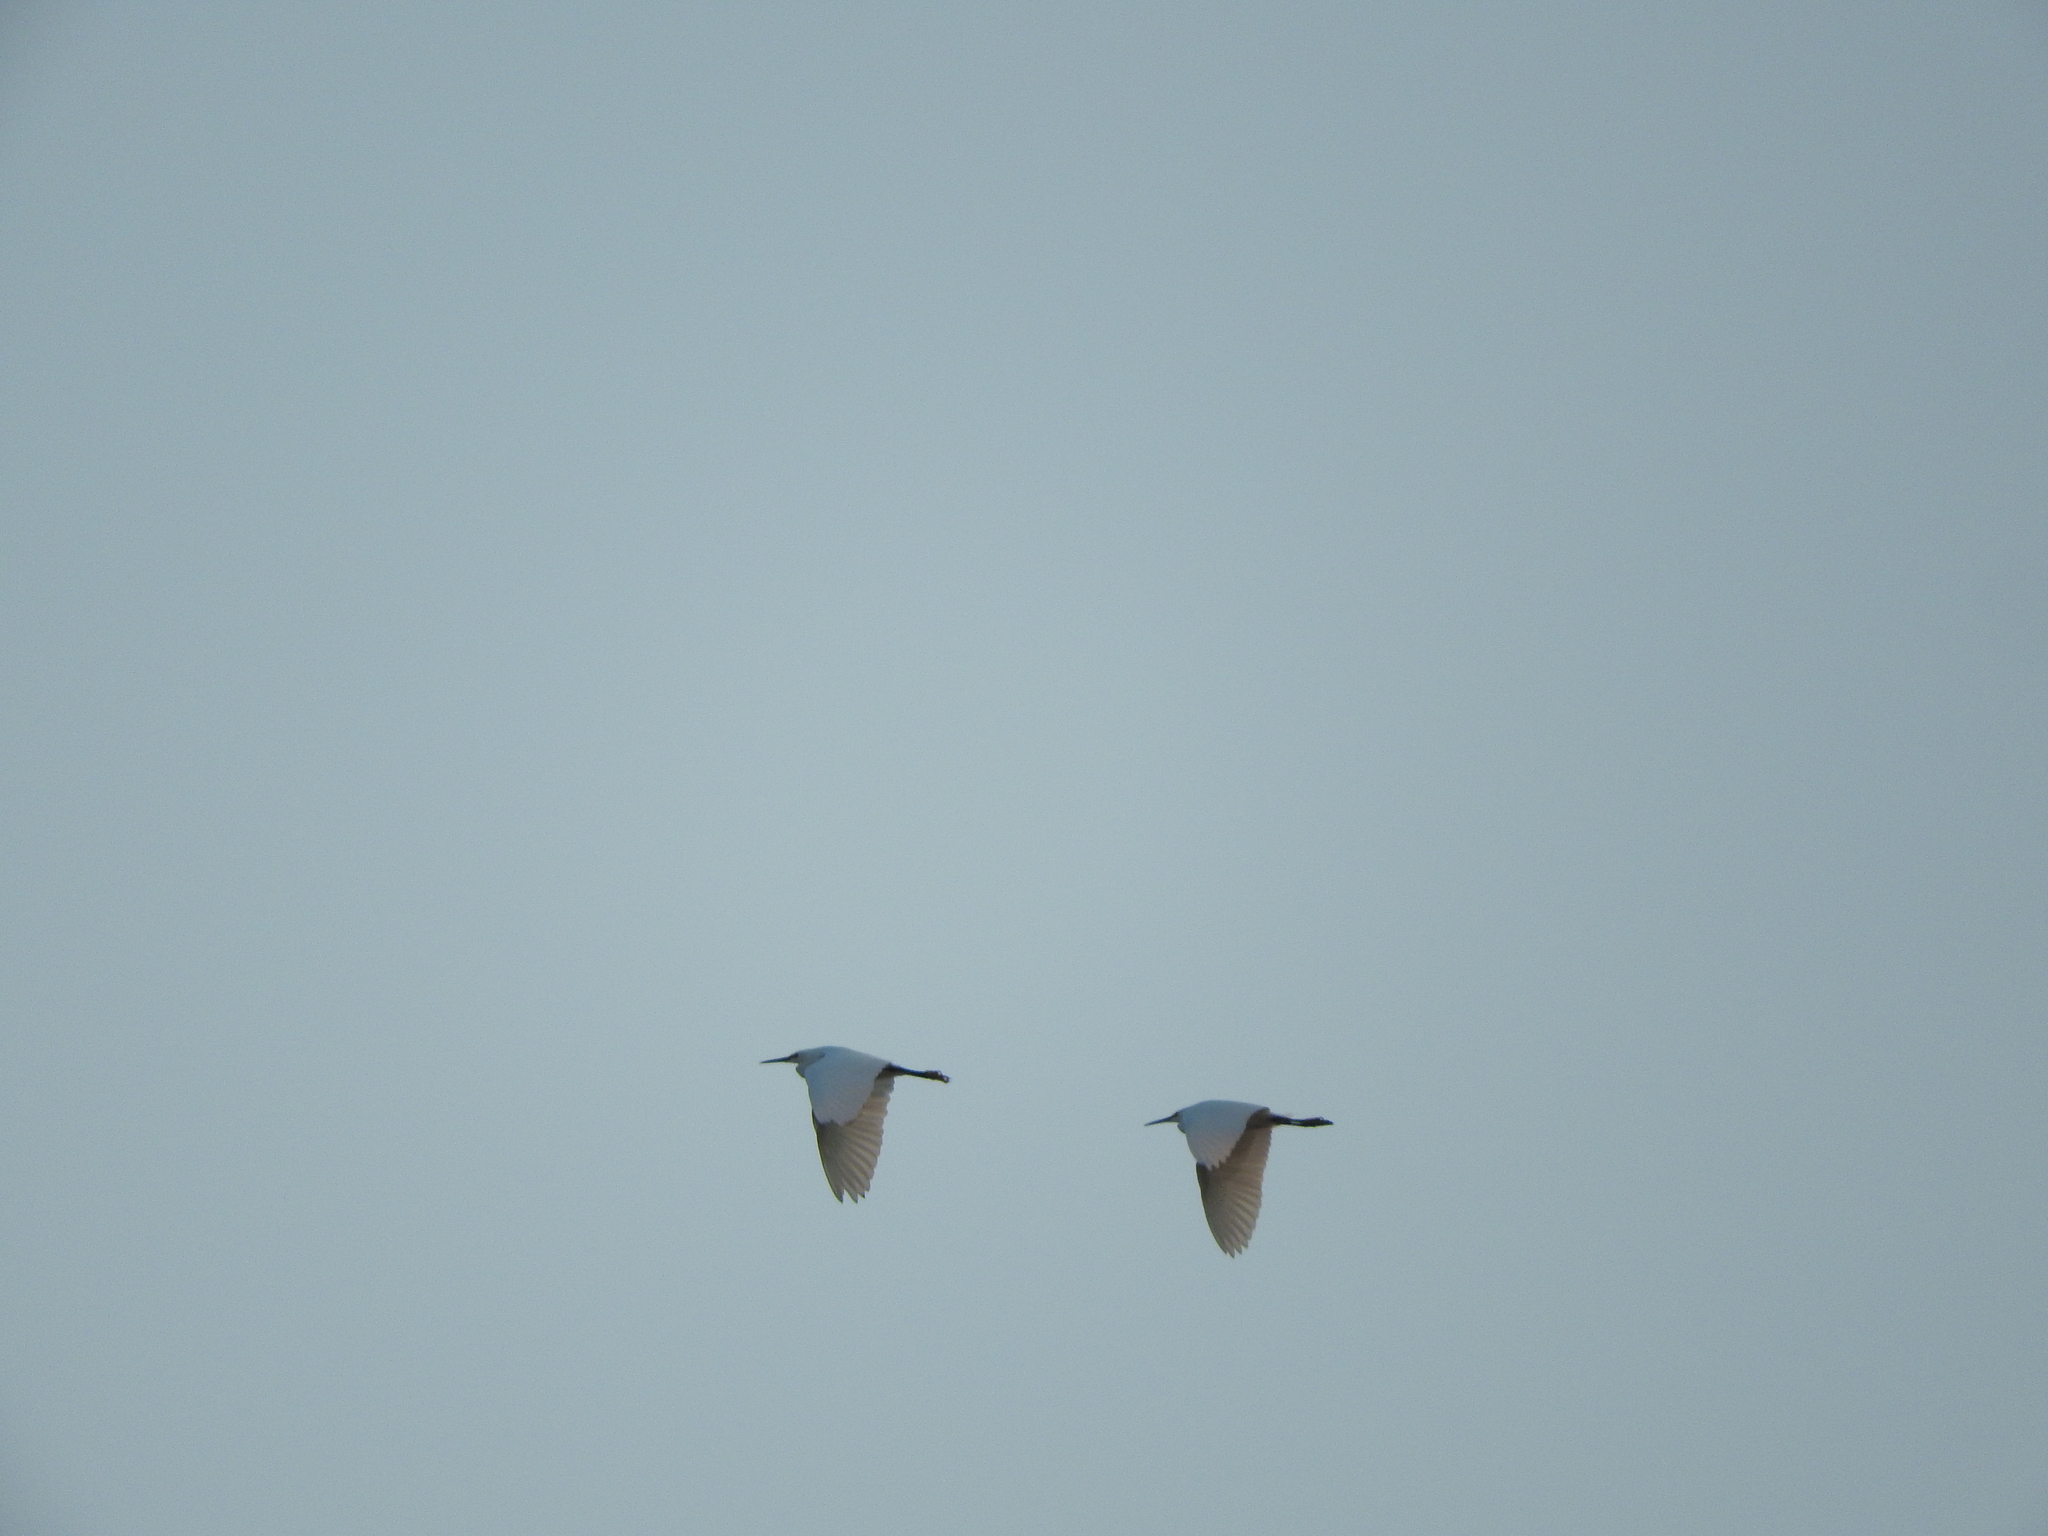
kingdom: Animalia
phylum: Chordata
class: Aves
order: Pelecaniformes
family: Ardeidae
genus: Egretta
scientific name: Egretta thula
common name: Snowy egret
